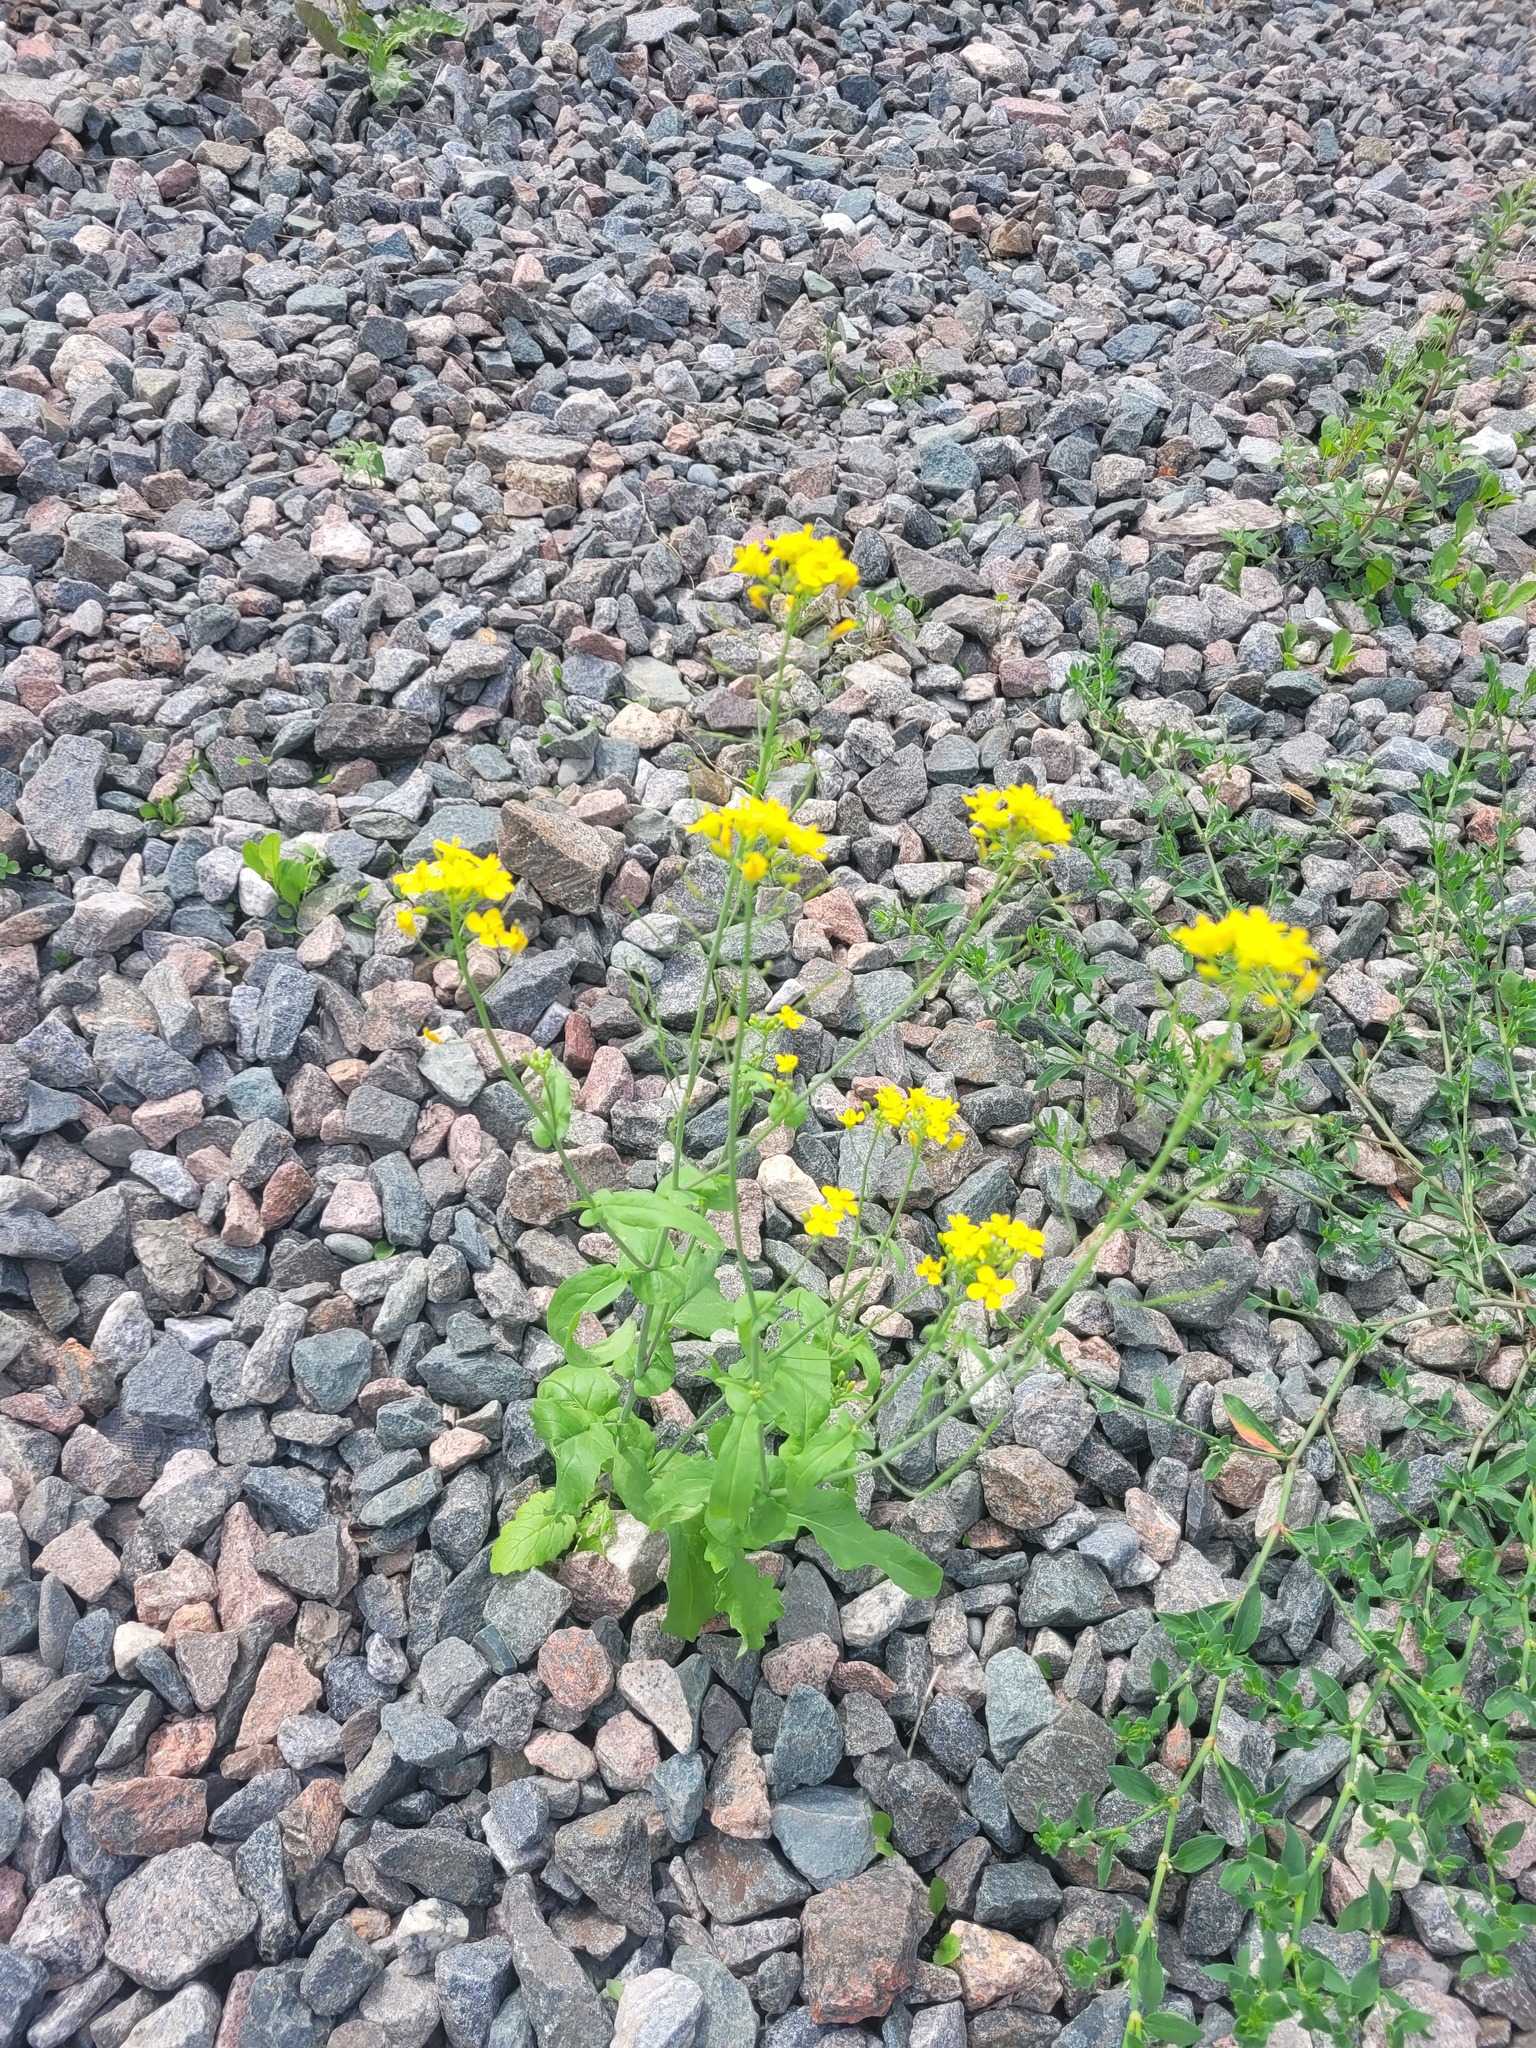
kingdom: Plantae
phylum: Tracheophyta
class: Magnoliopsida
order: Brassicales
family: Brassicaceae
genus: Brassica
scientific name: Brassica rapa
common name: Field mustard
